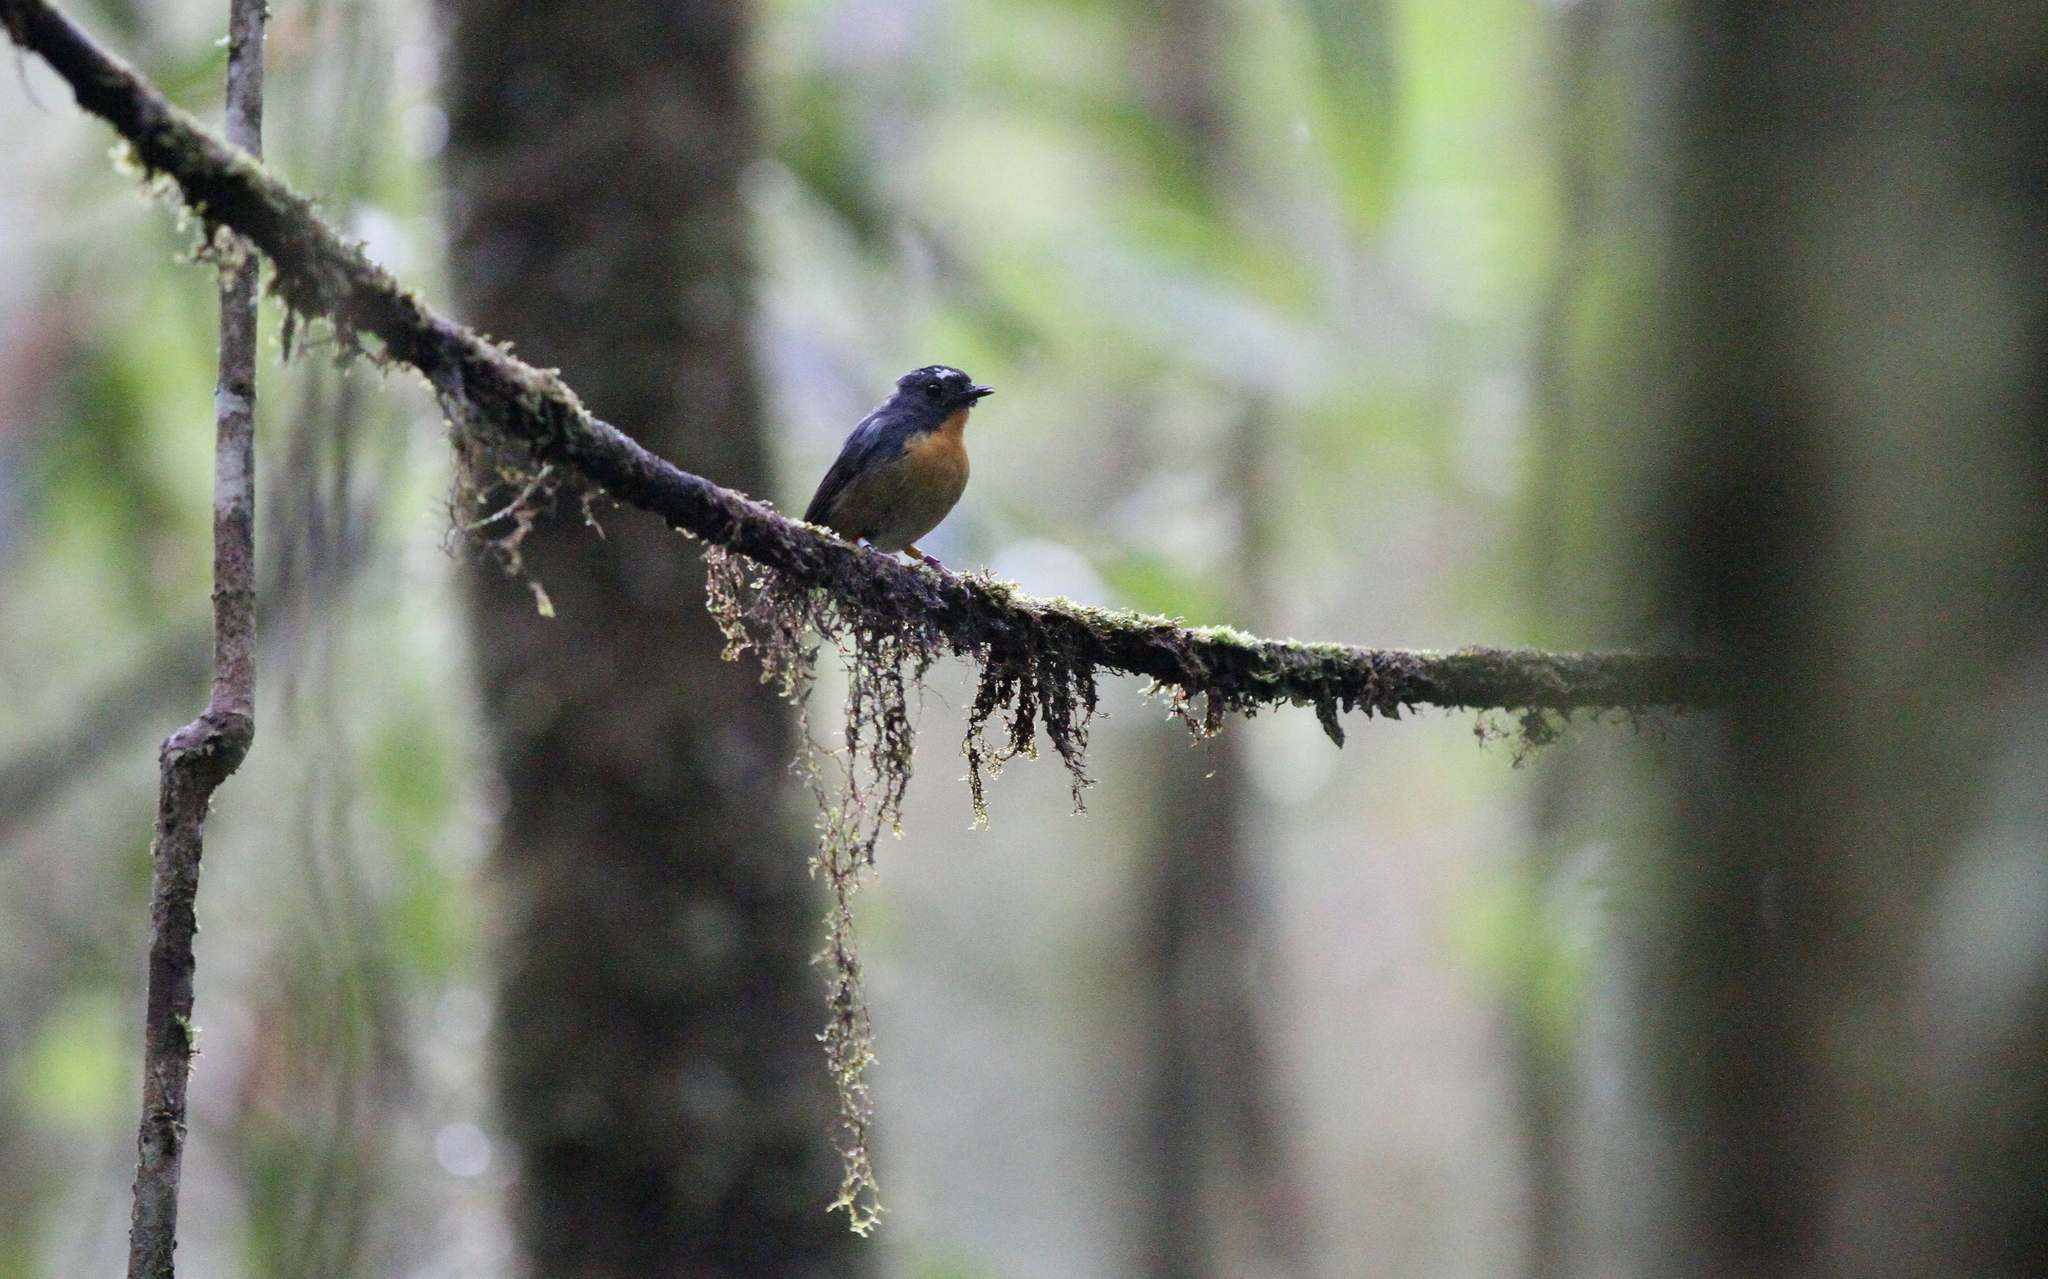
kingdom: Animalia
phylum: Chordata
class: Aves
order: Passeriformes
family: Muscicapidae
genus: Ficedula
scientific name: Ficedula hyperythra
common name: Snowy-browed flycatcher
